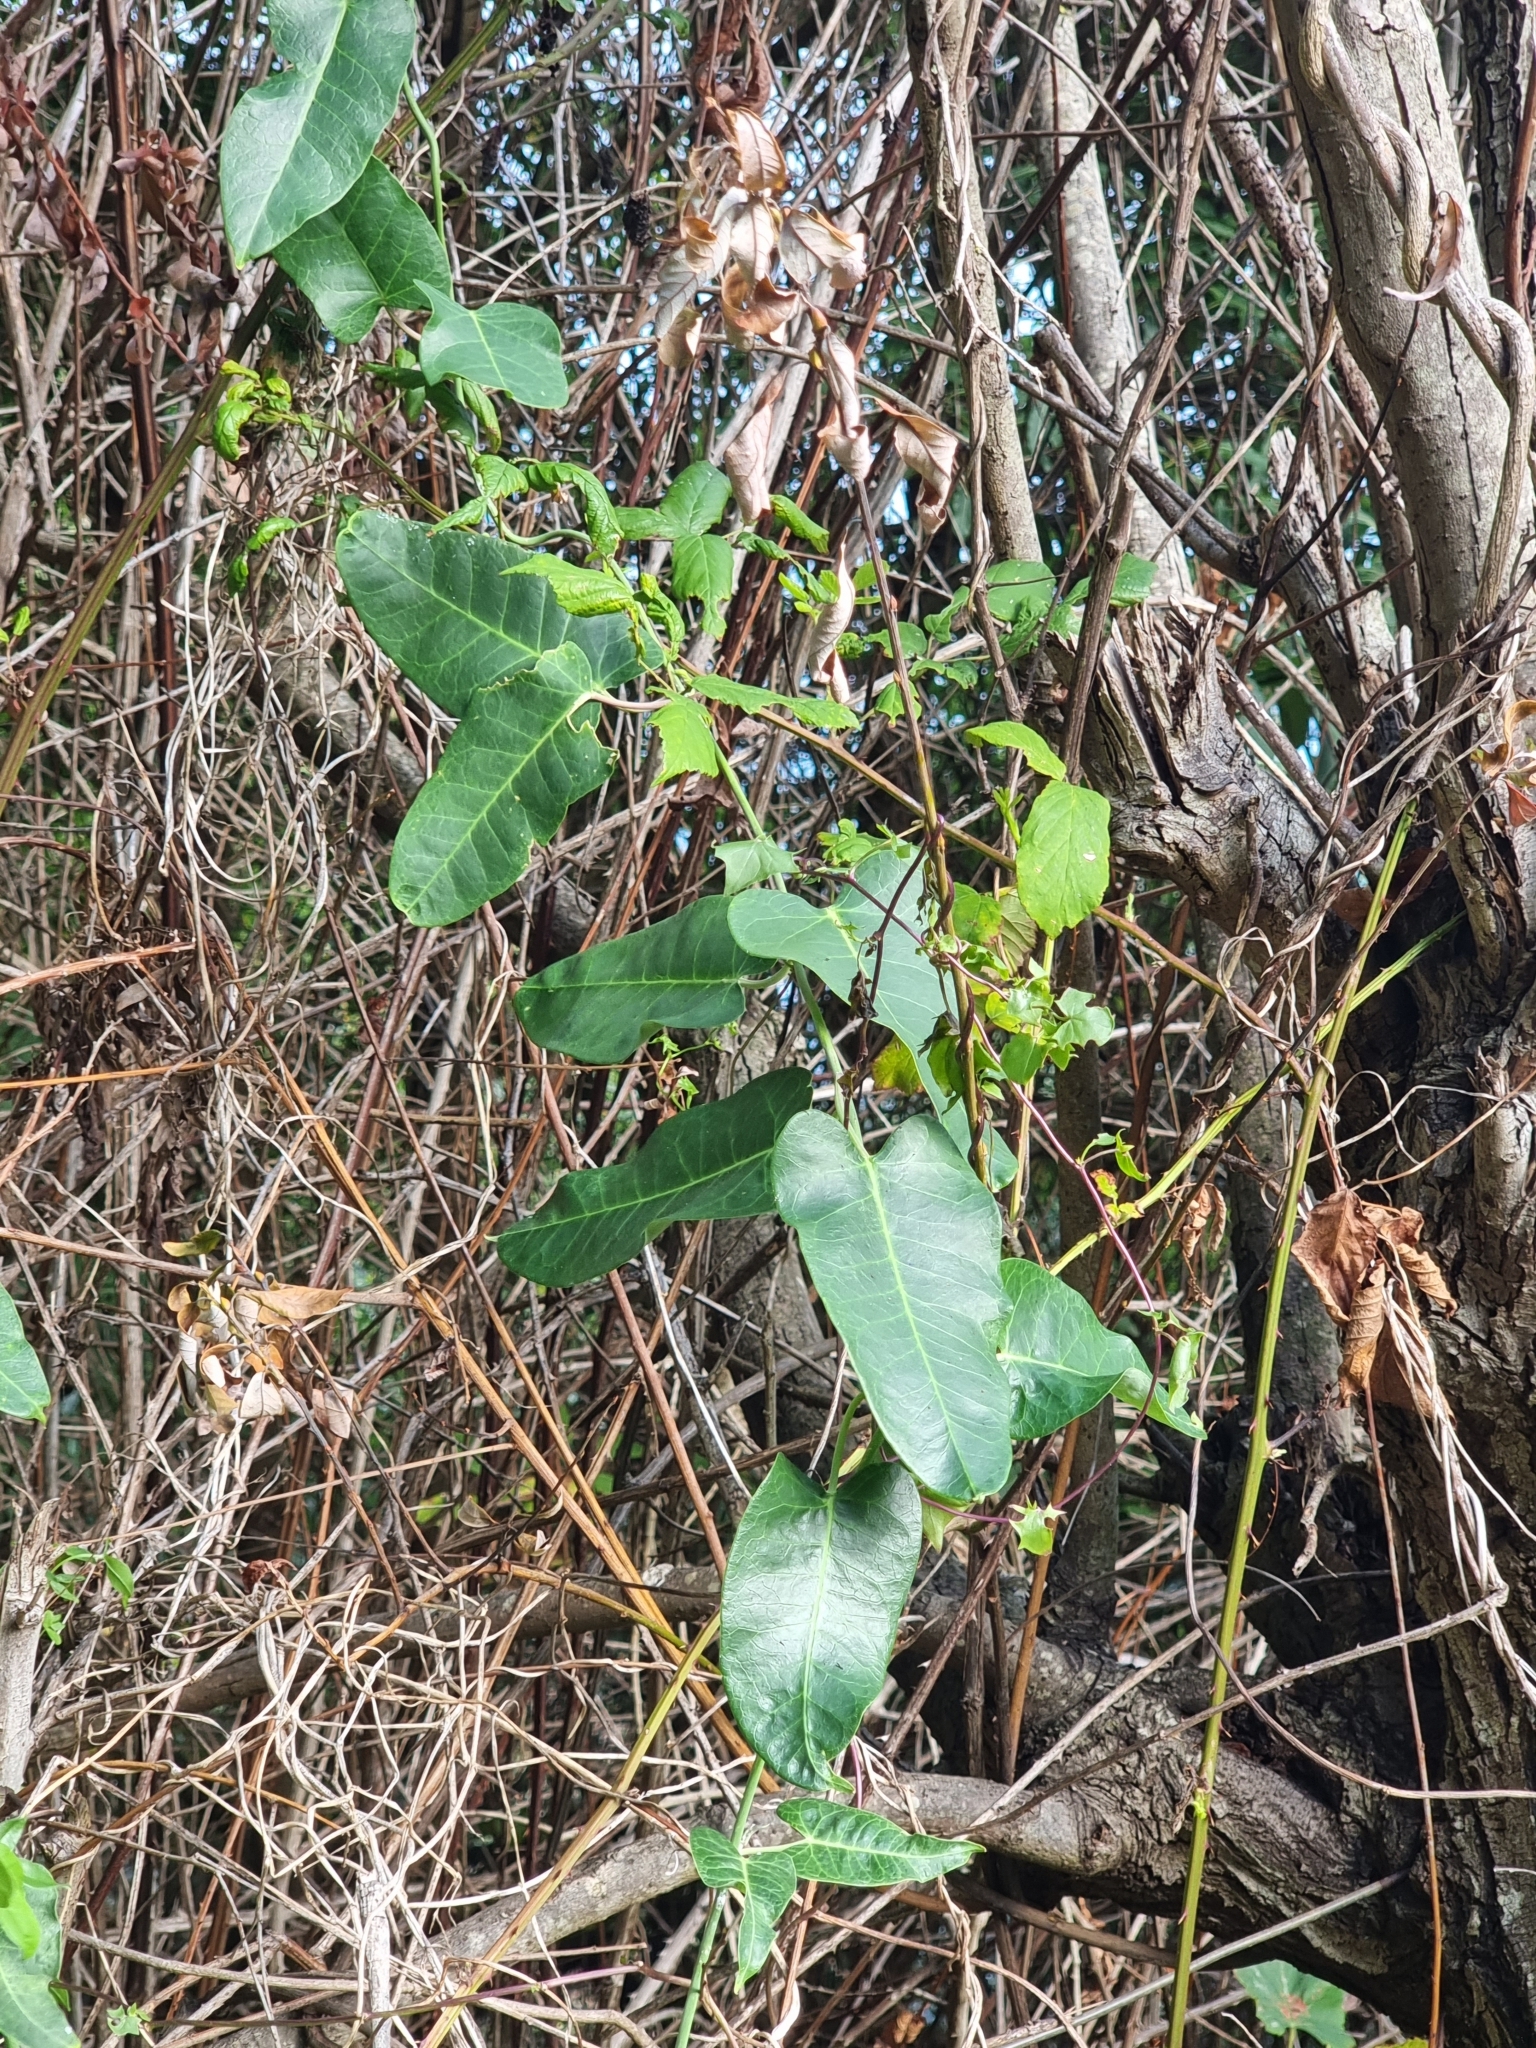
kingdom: Plantae
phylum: Tracheophyta
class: Magnoliopsida
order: Gentianales
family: Apocynaceae
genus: Araujia
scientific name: Araujia sericifera
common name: White bladderflower
